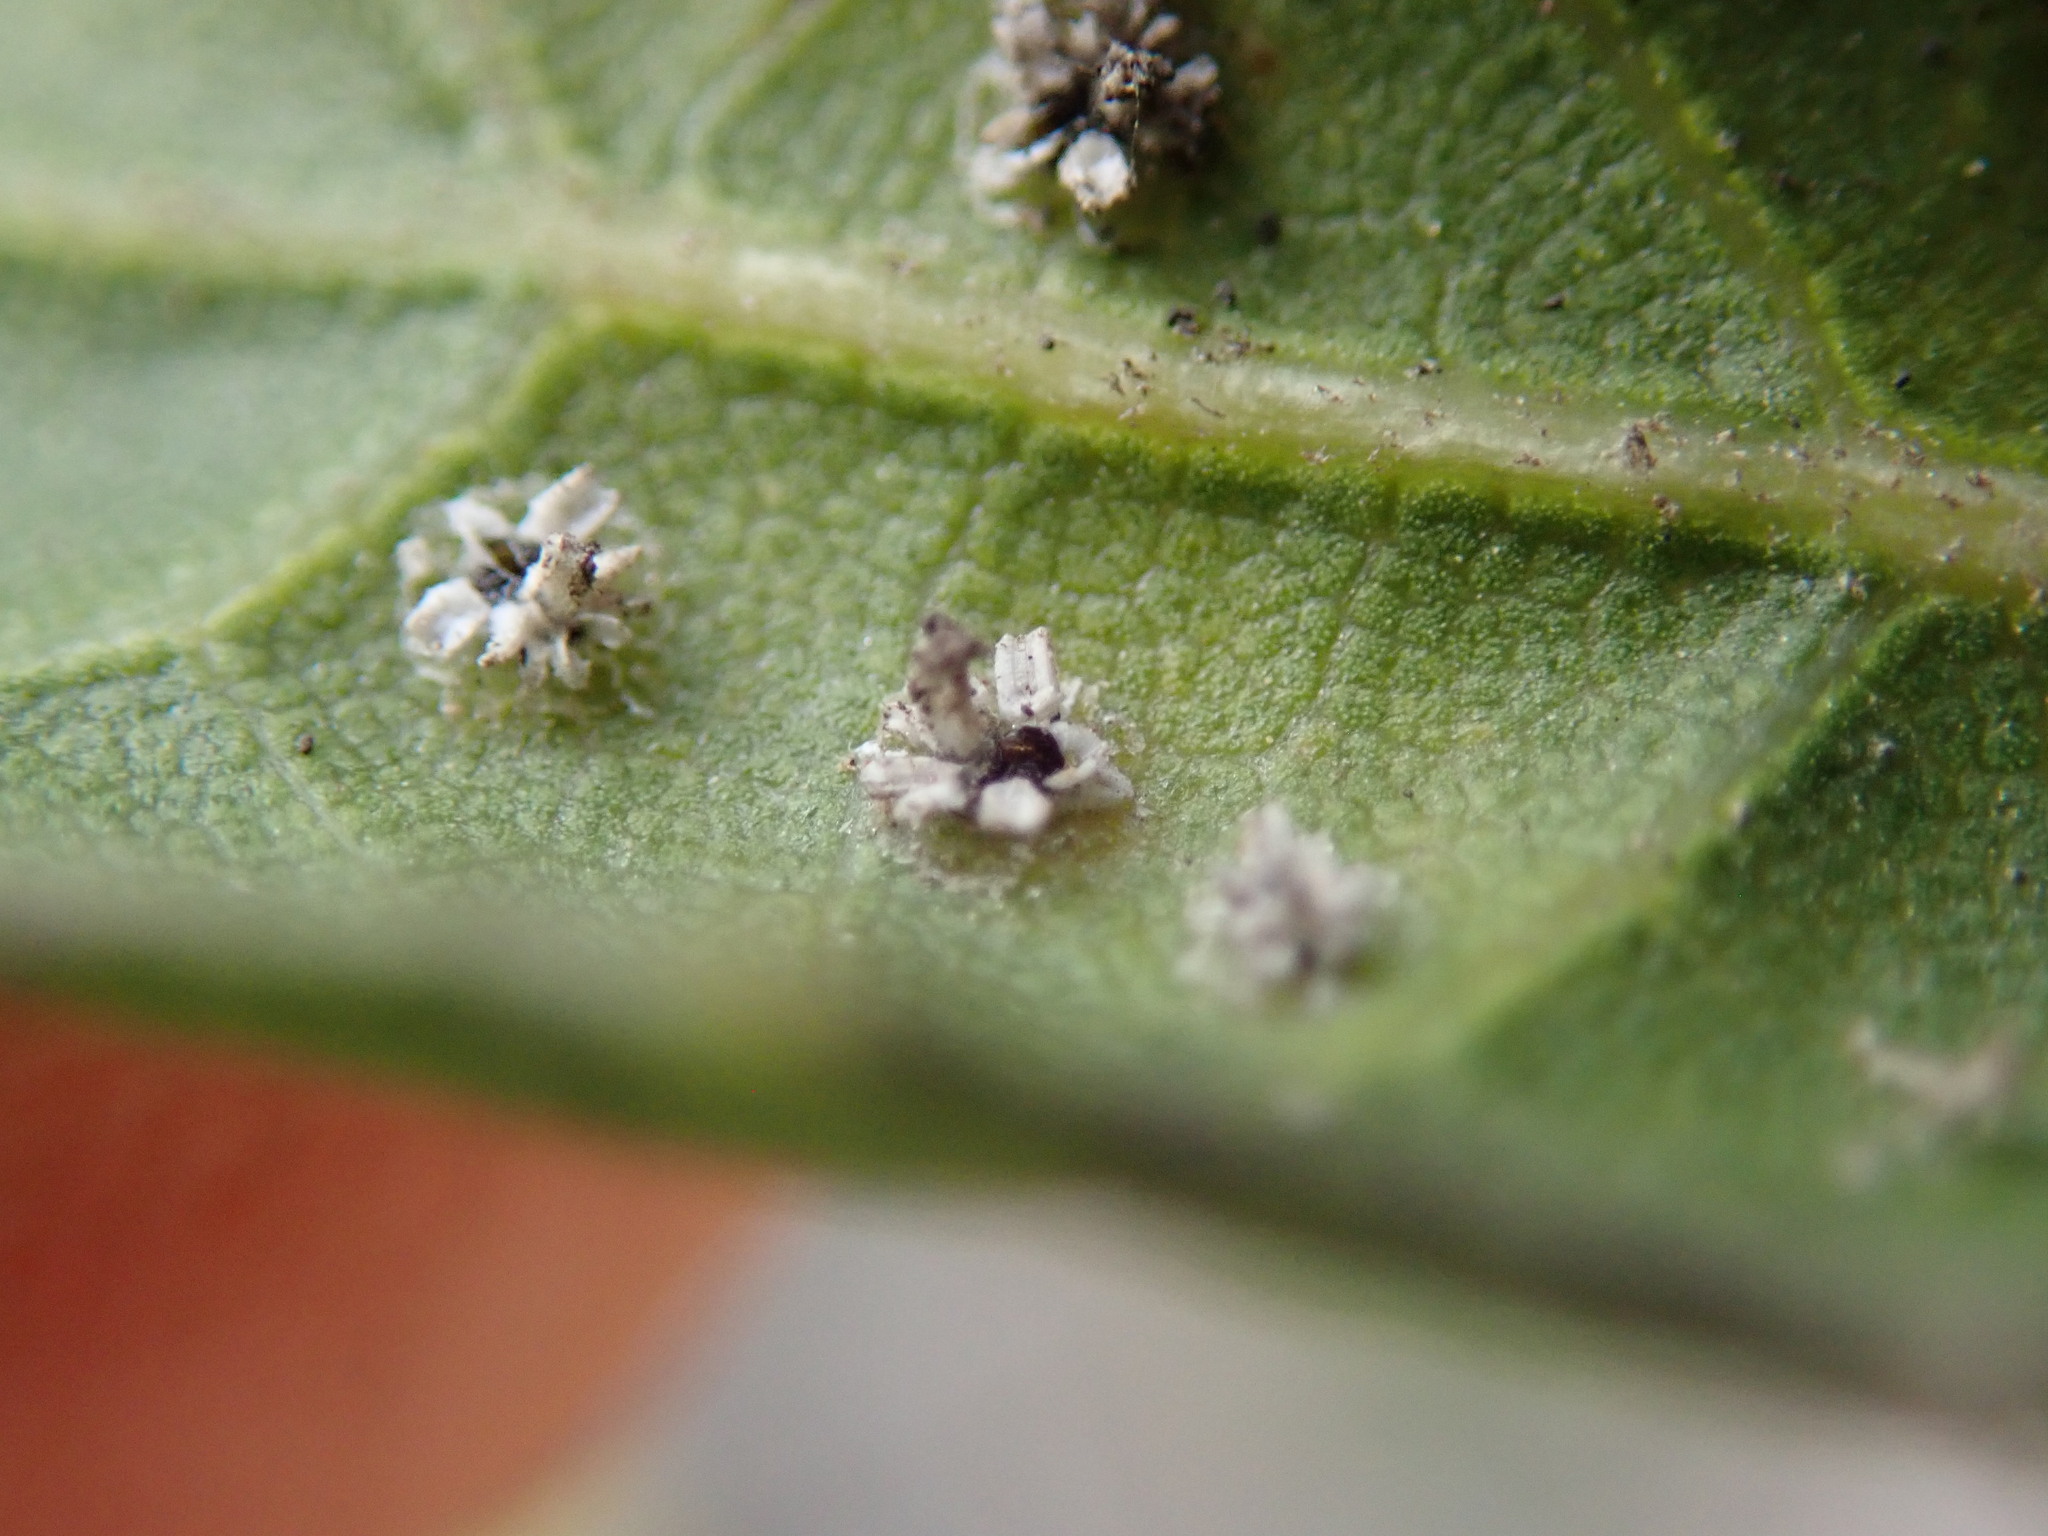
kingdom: Animalia
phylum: Arthropoda
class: Insecta
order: Hemiptera
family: Aleyrodidae
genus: Aleuroplatus
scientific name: Aleuroplatus coronata
